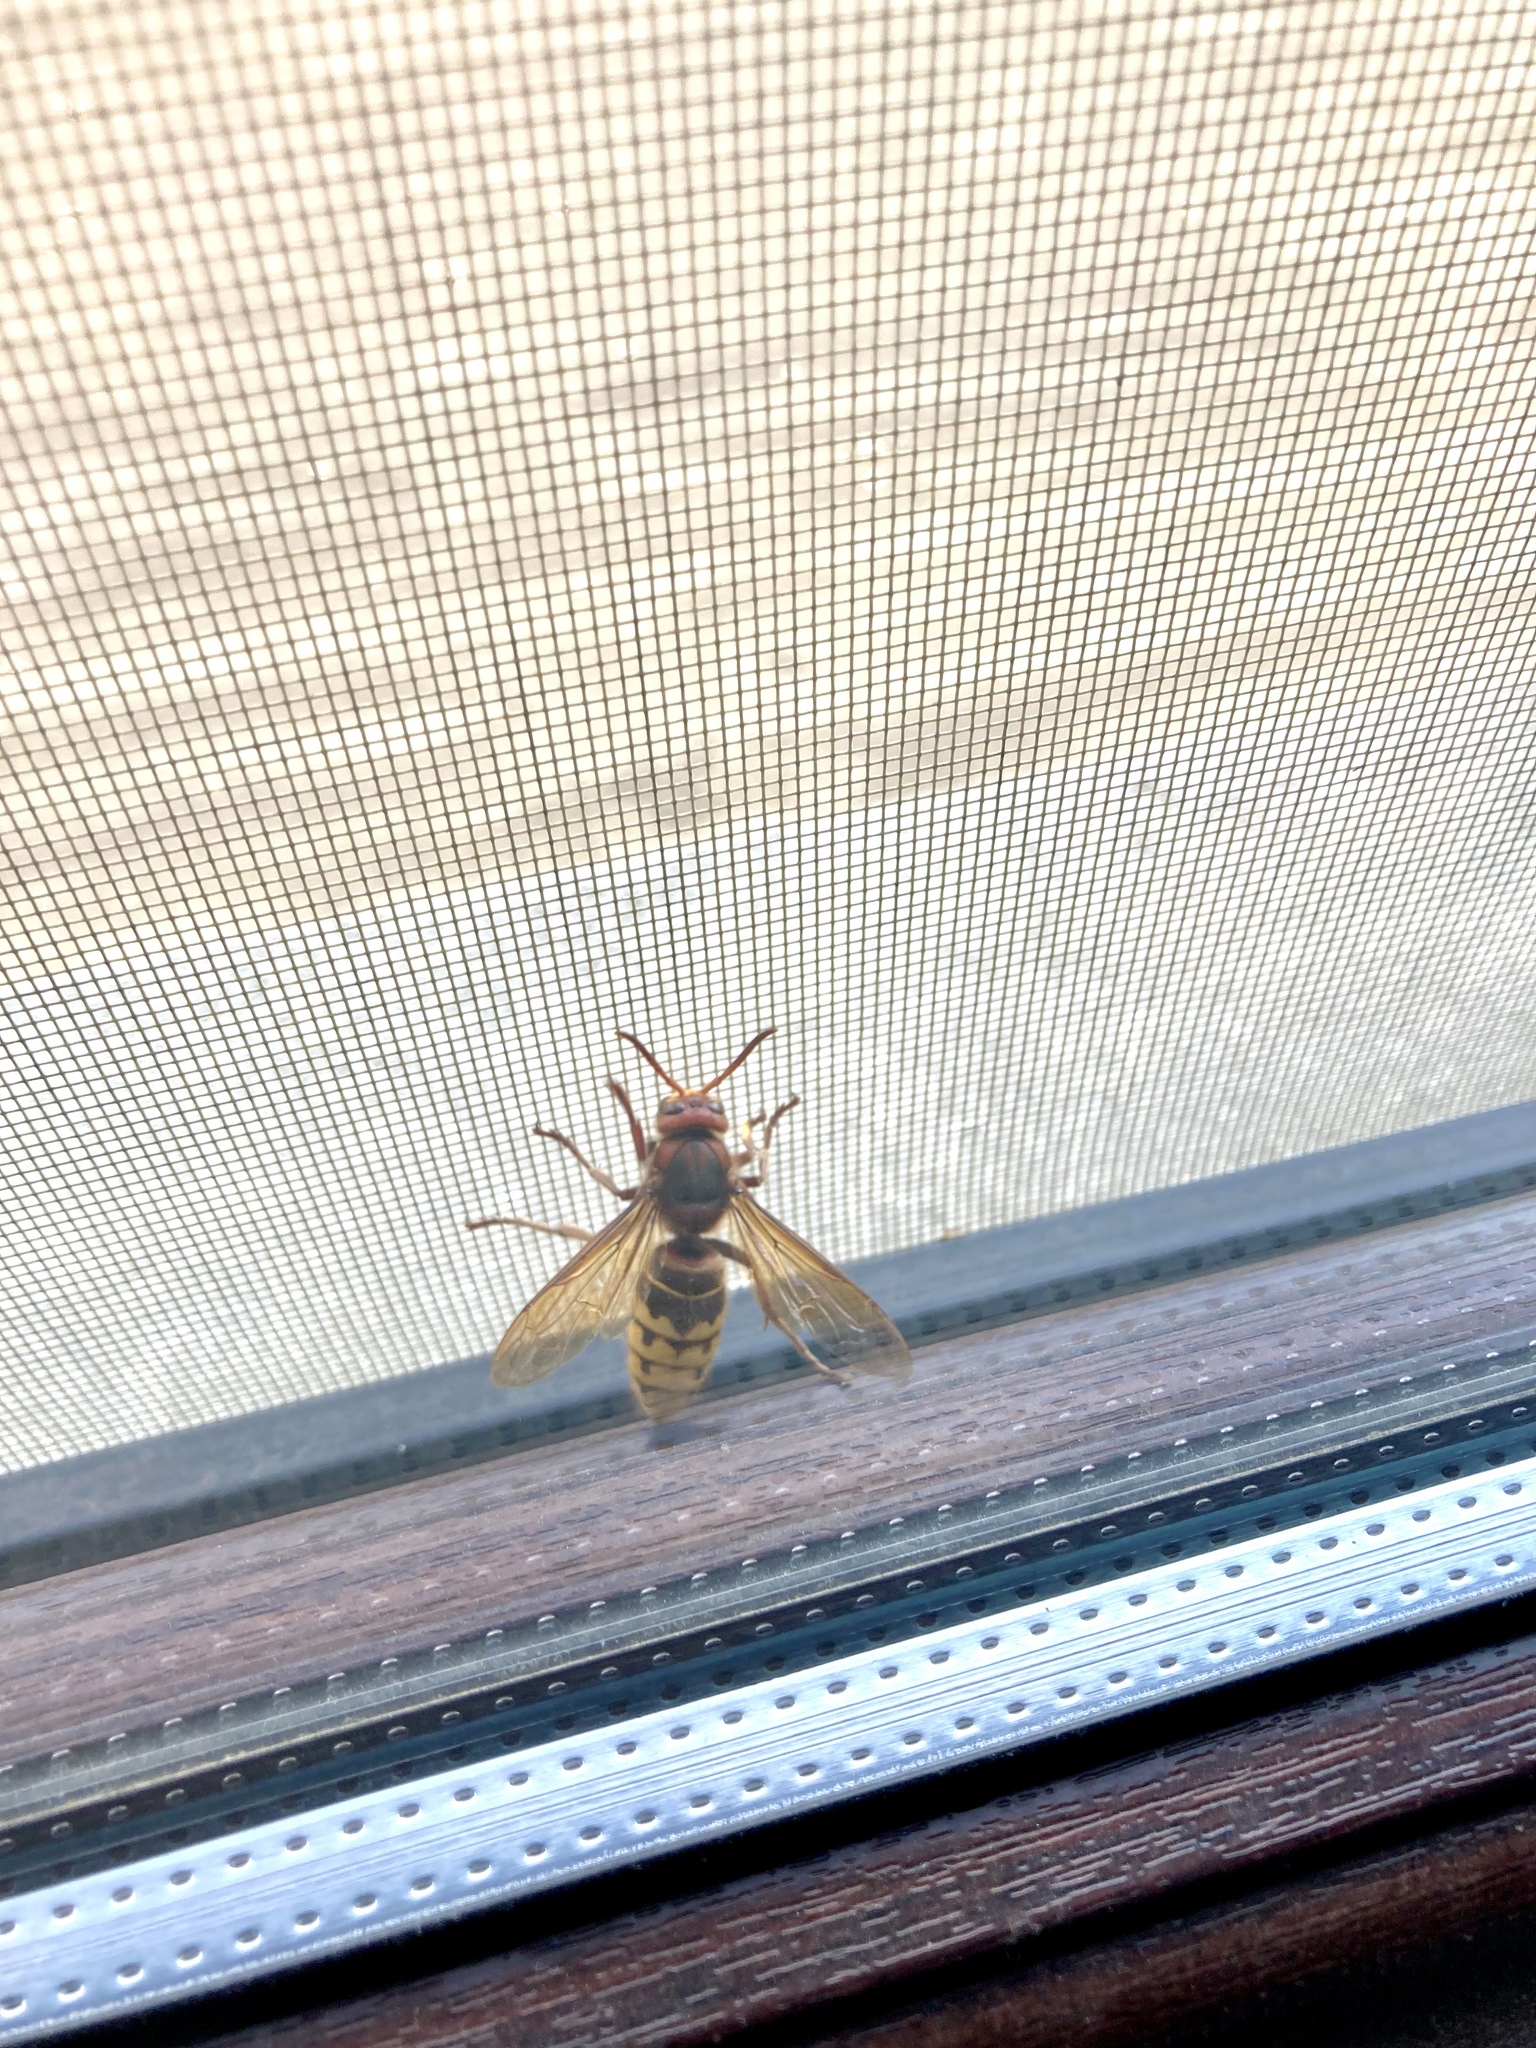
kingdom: Animalia
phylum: Arthropoda
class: Insecta
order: Hymenoptera
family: Vespidae
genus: Vespa
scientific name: Vespa crabro
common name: Hornet
